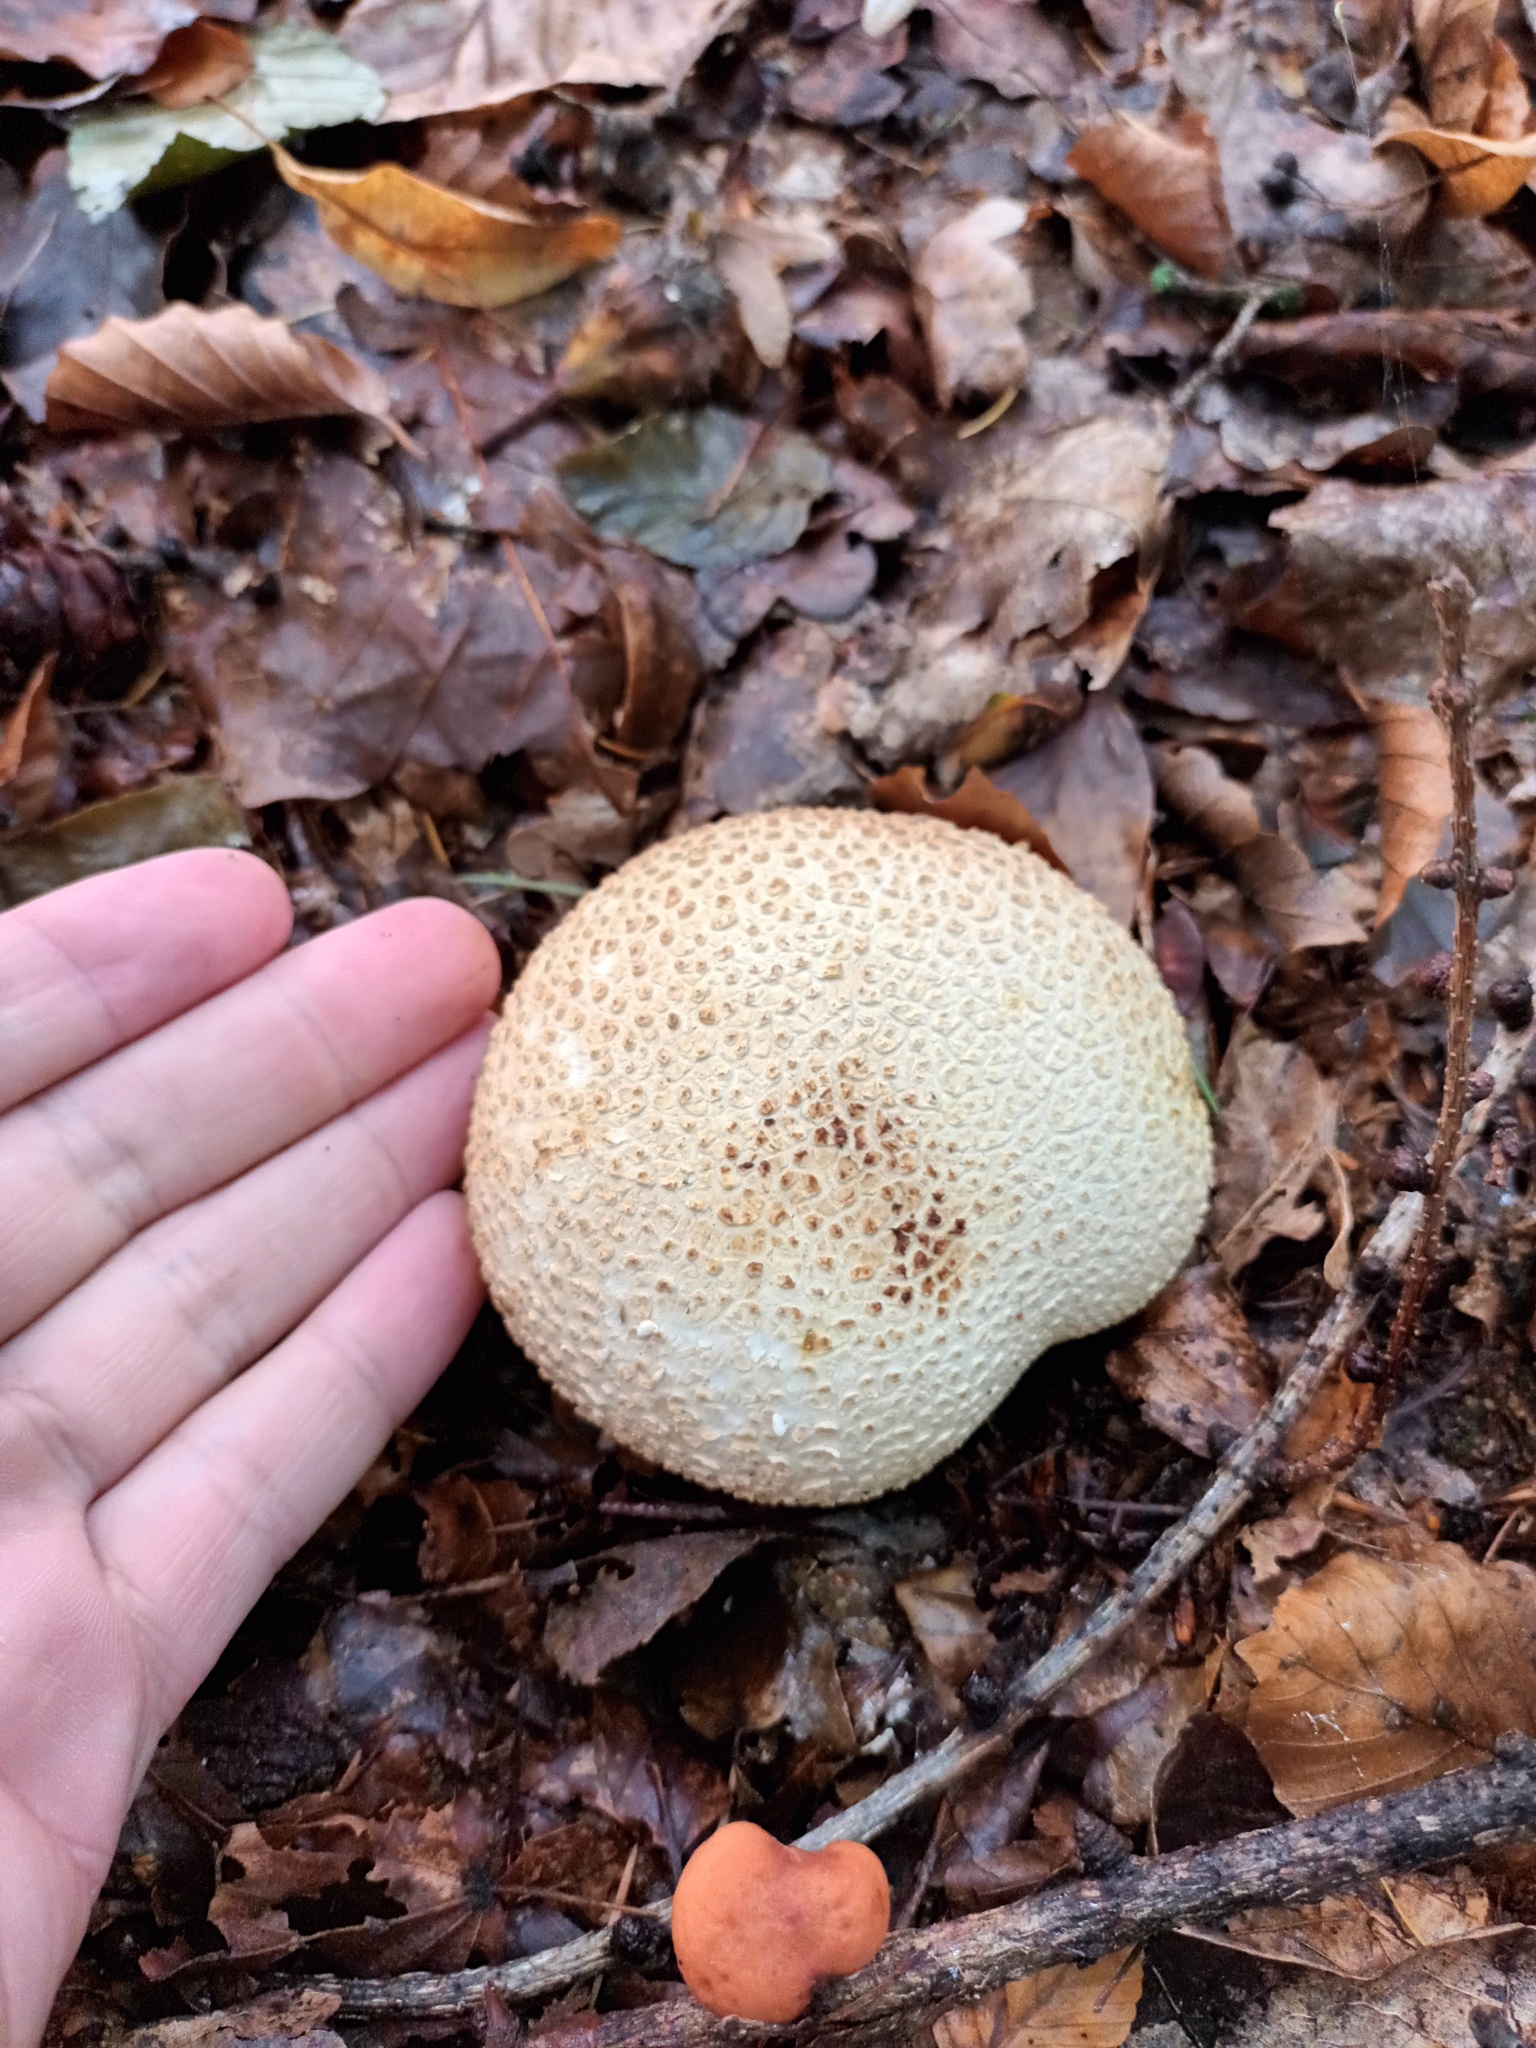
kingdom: Fungi
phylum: Basidiomycota
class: Agaricomycetes
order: Boletales
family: Sclerodermataceae
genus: Scleroderma
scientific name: Scleroderma citrinum
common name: Common earthball
